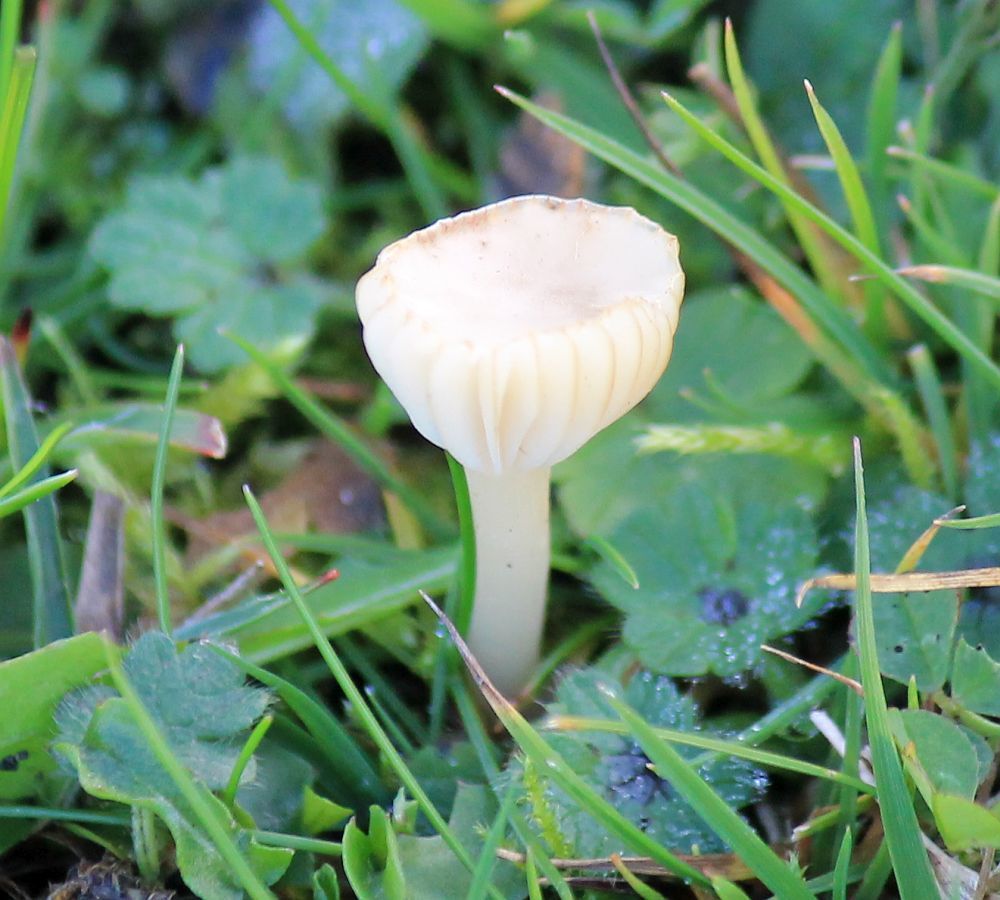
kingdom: Fungi
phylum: Basidiomycota
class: Agaricomycetes
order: Agaricales
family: Hygrophoraceae
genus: Cuphophyllus
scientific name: Cuphophyllus virgineus
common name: Snowy waxcap
